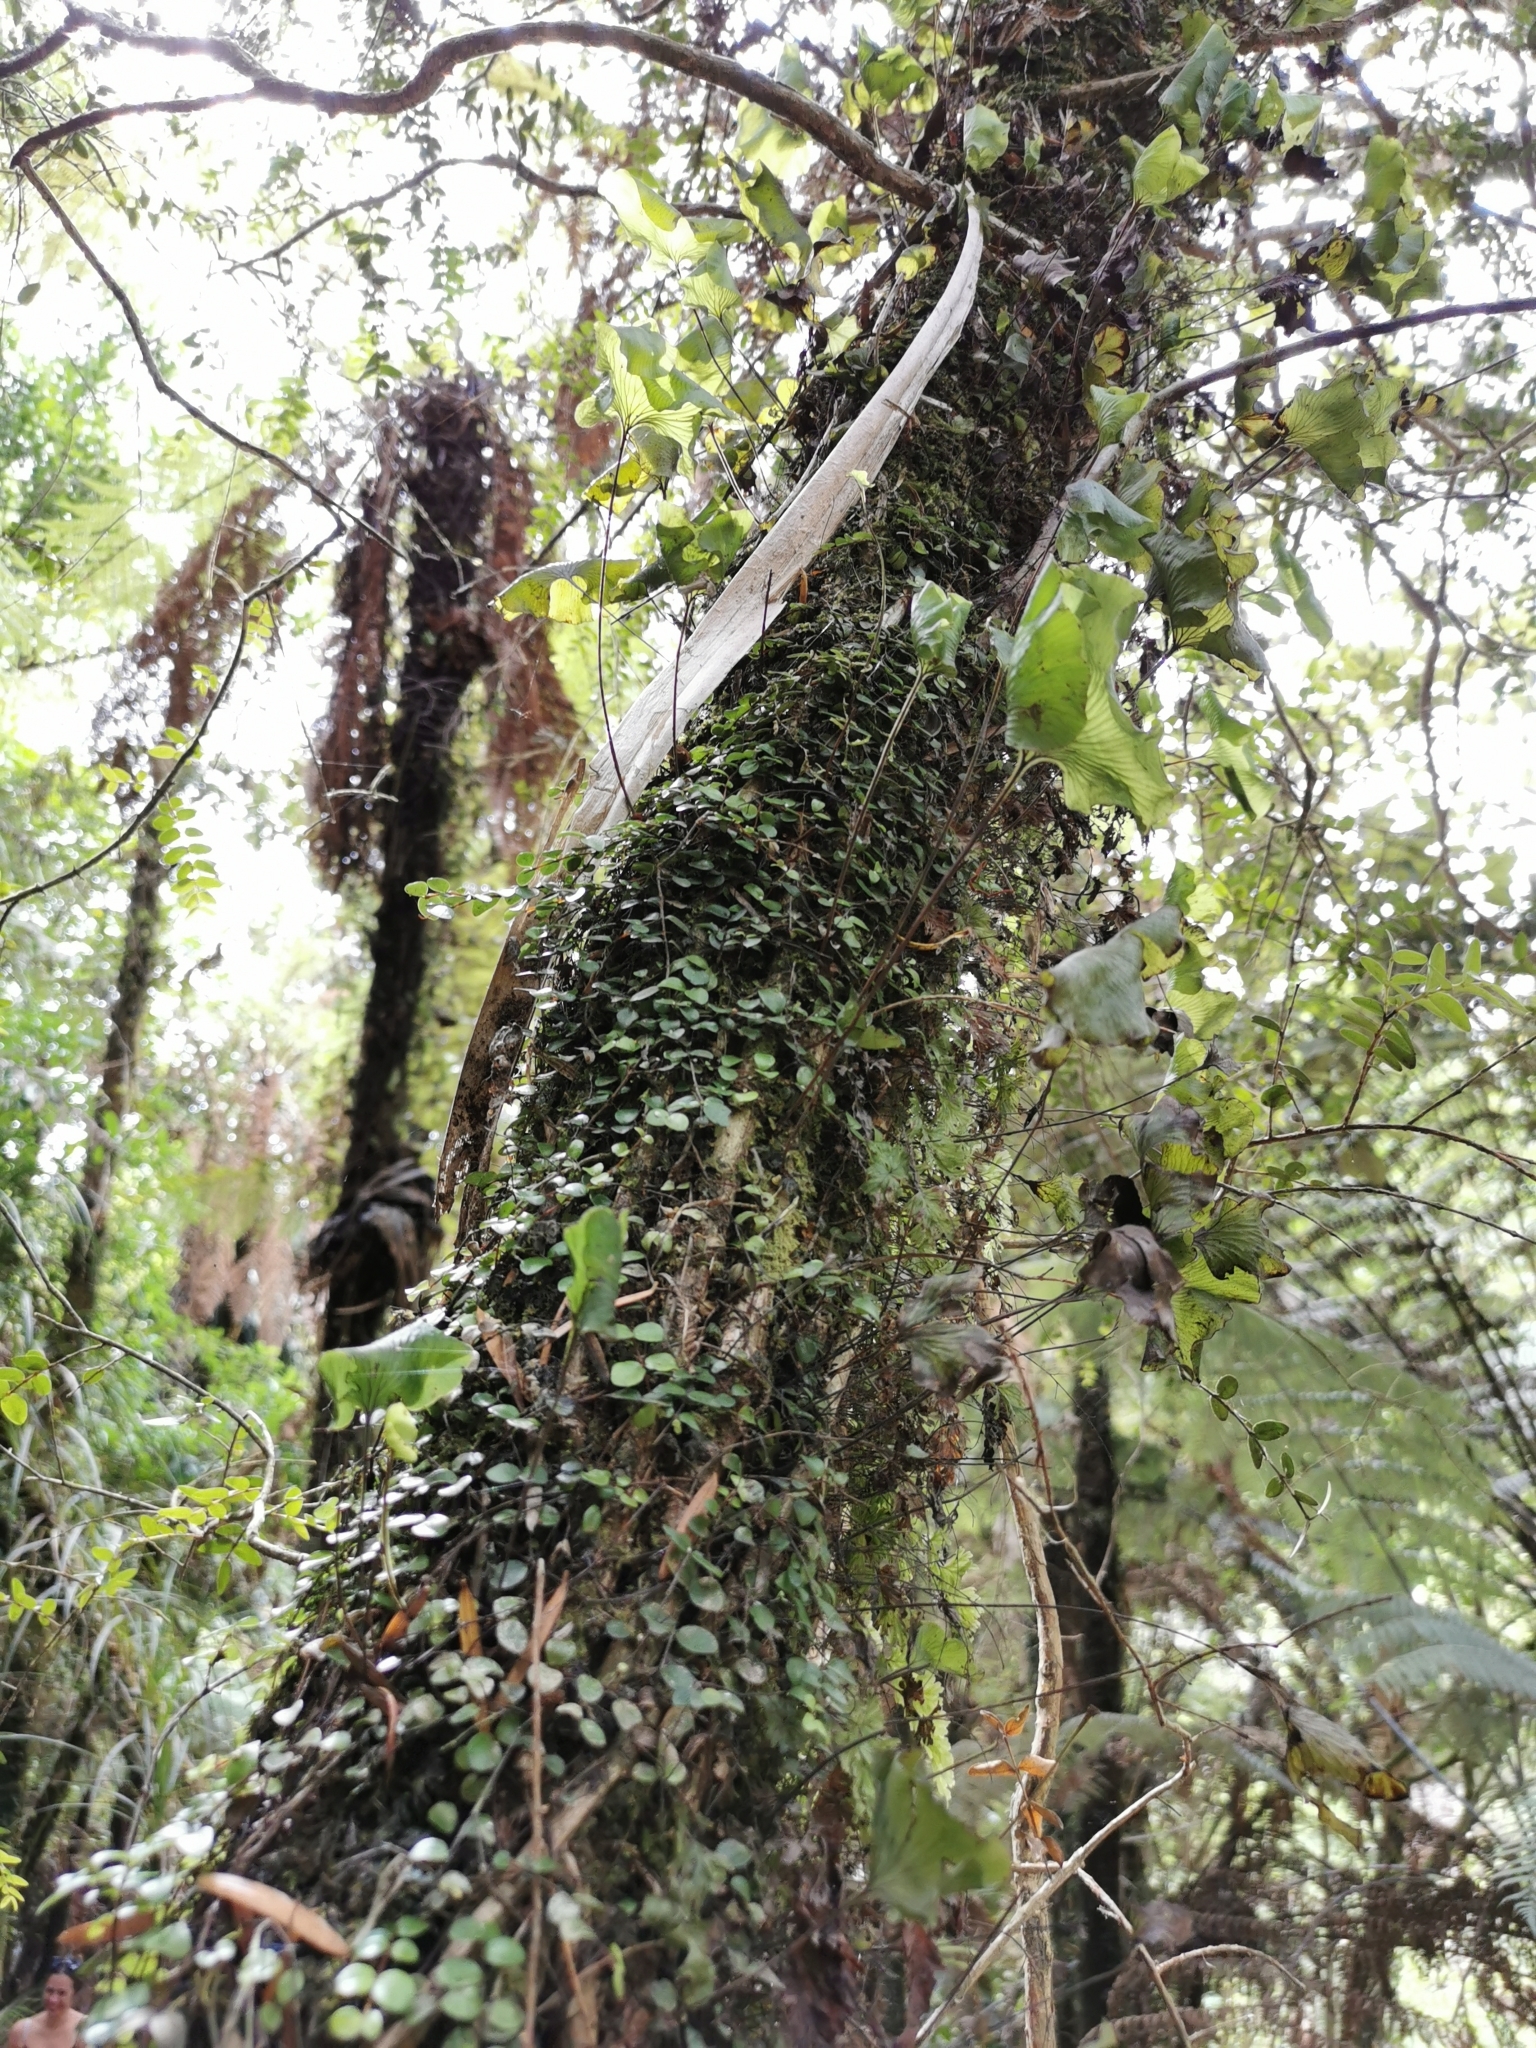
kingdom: Plantae
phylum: Tracheophyta
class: Polypodiopsida
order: Hymenophyllales
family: Hymenophyllaceae
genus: Hymenophyllum
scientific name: Hymenophyllum nephrophyllum
